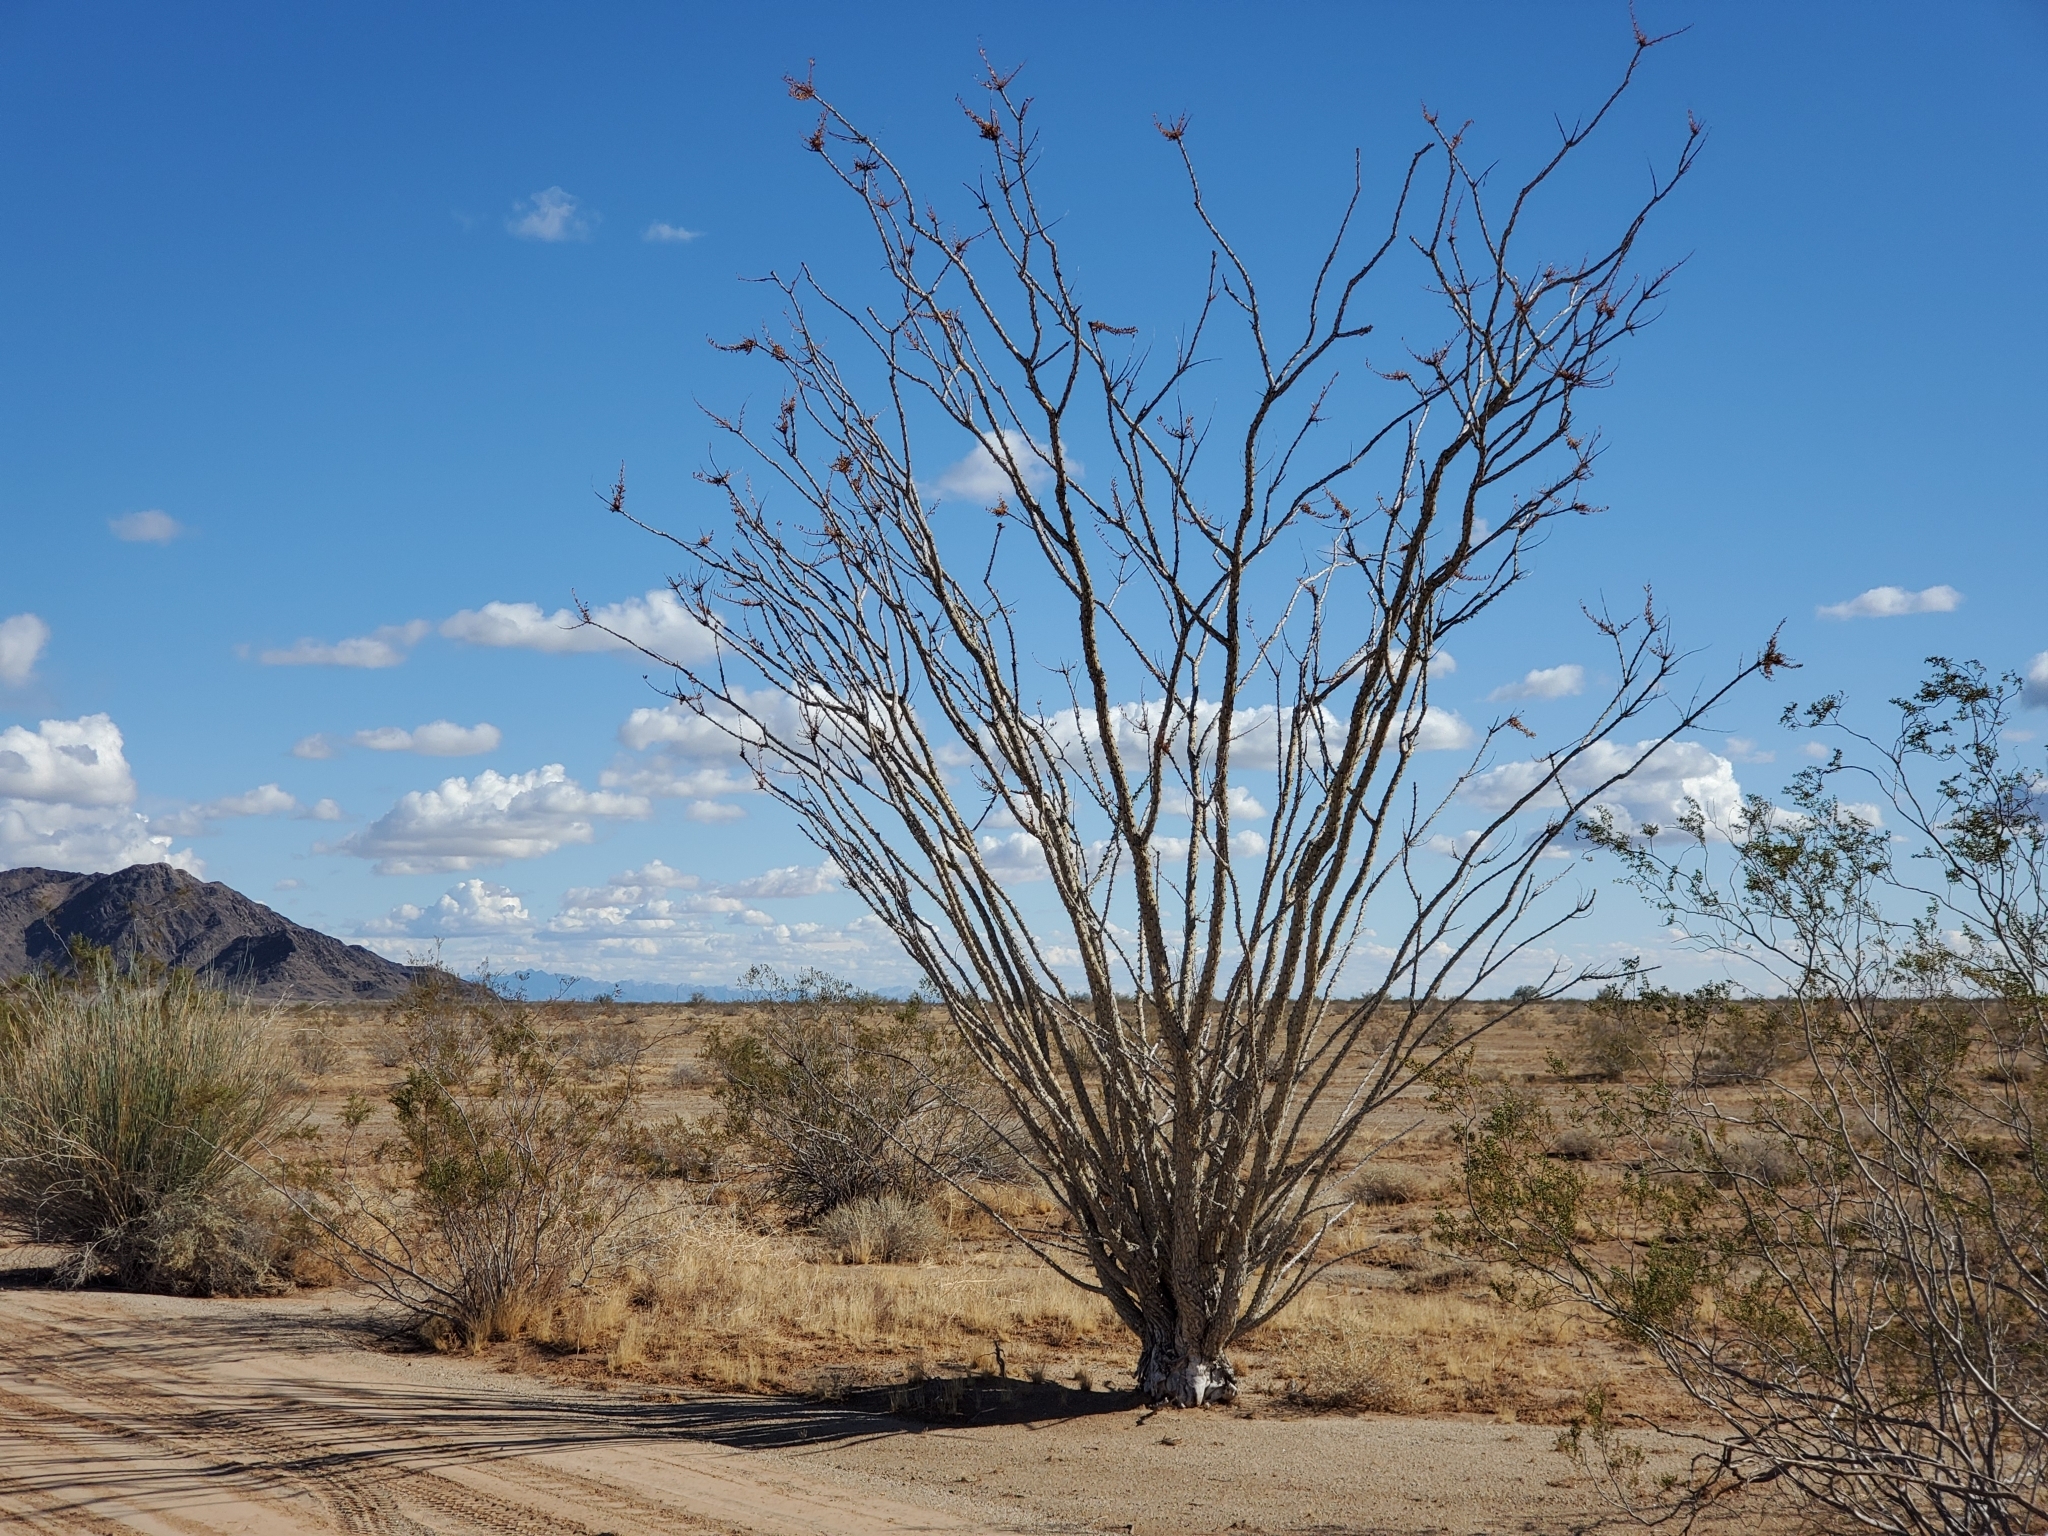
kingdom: Plantae
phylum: Tracheophyta
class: Magnoliopsida
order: Ericales
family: Fouquieriaceae
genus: Fouquieria
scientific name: Fouquieria splendens
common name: Vine-cactus
